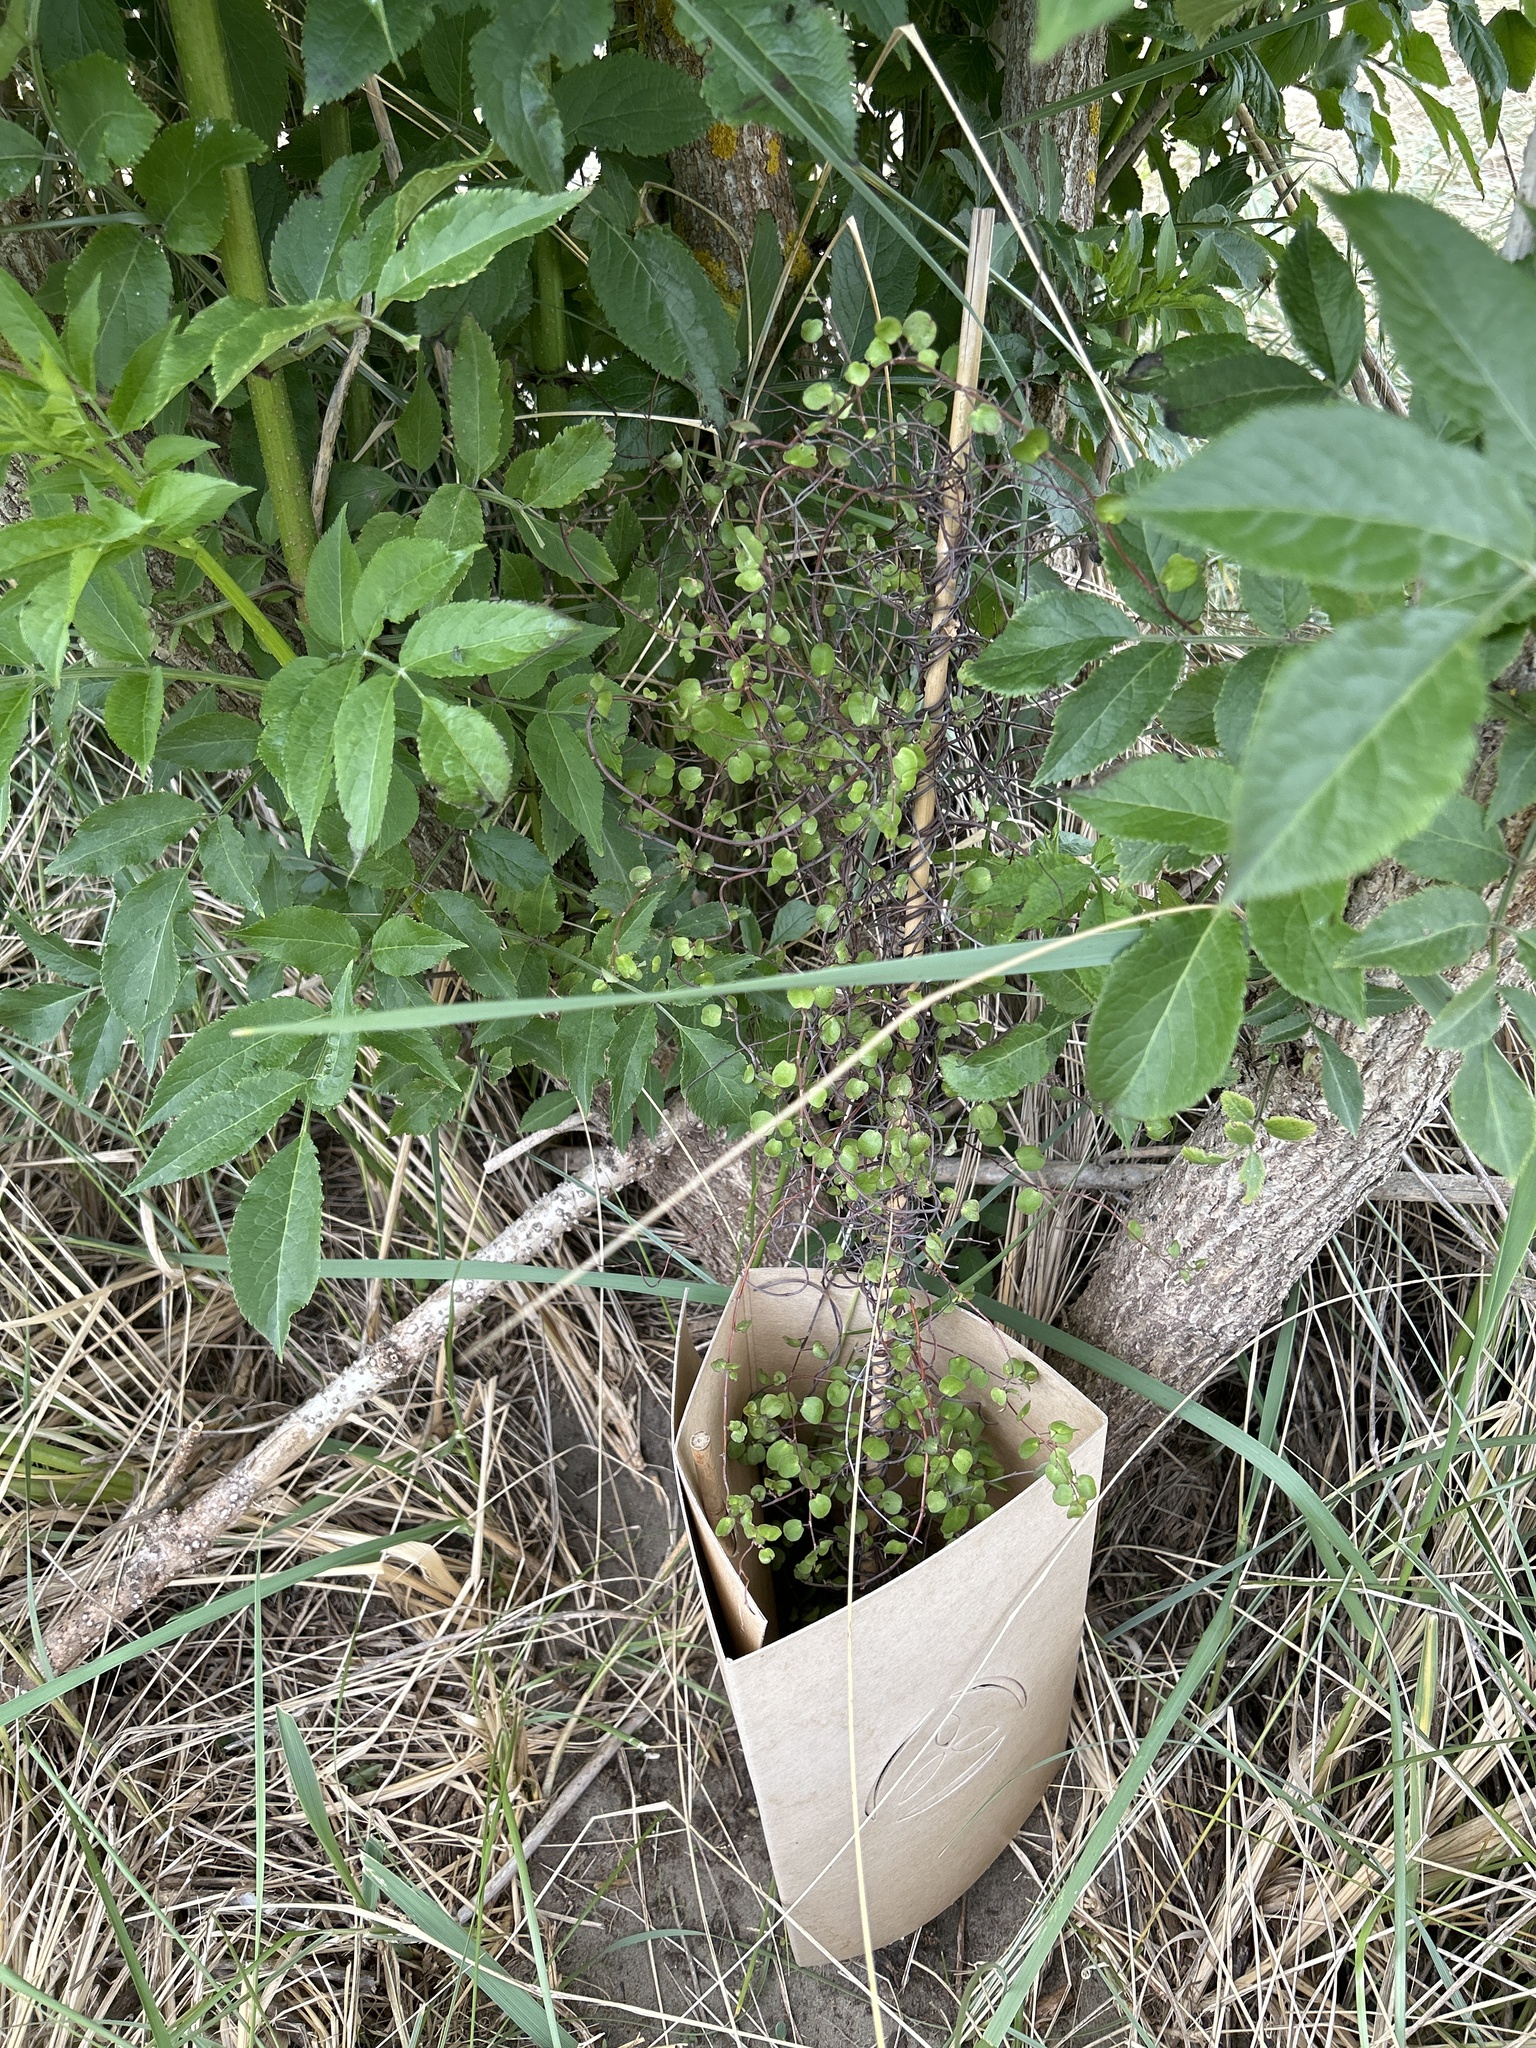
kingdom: Plantae
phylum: Tracheophyta
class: Magnoliopsida
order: Caryophyllales
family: Polygonaceae
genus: Muehlenbeckia
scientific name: Muehlenbeckia complexa
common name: Wireplant
